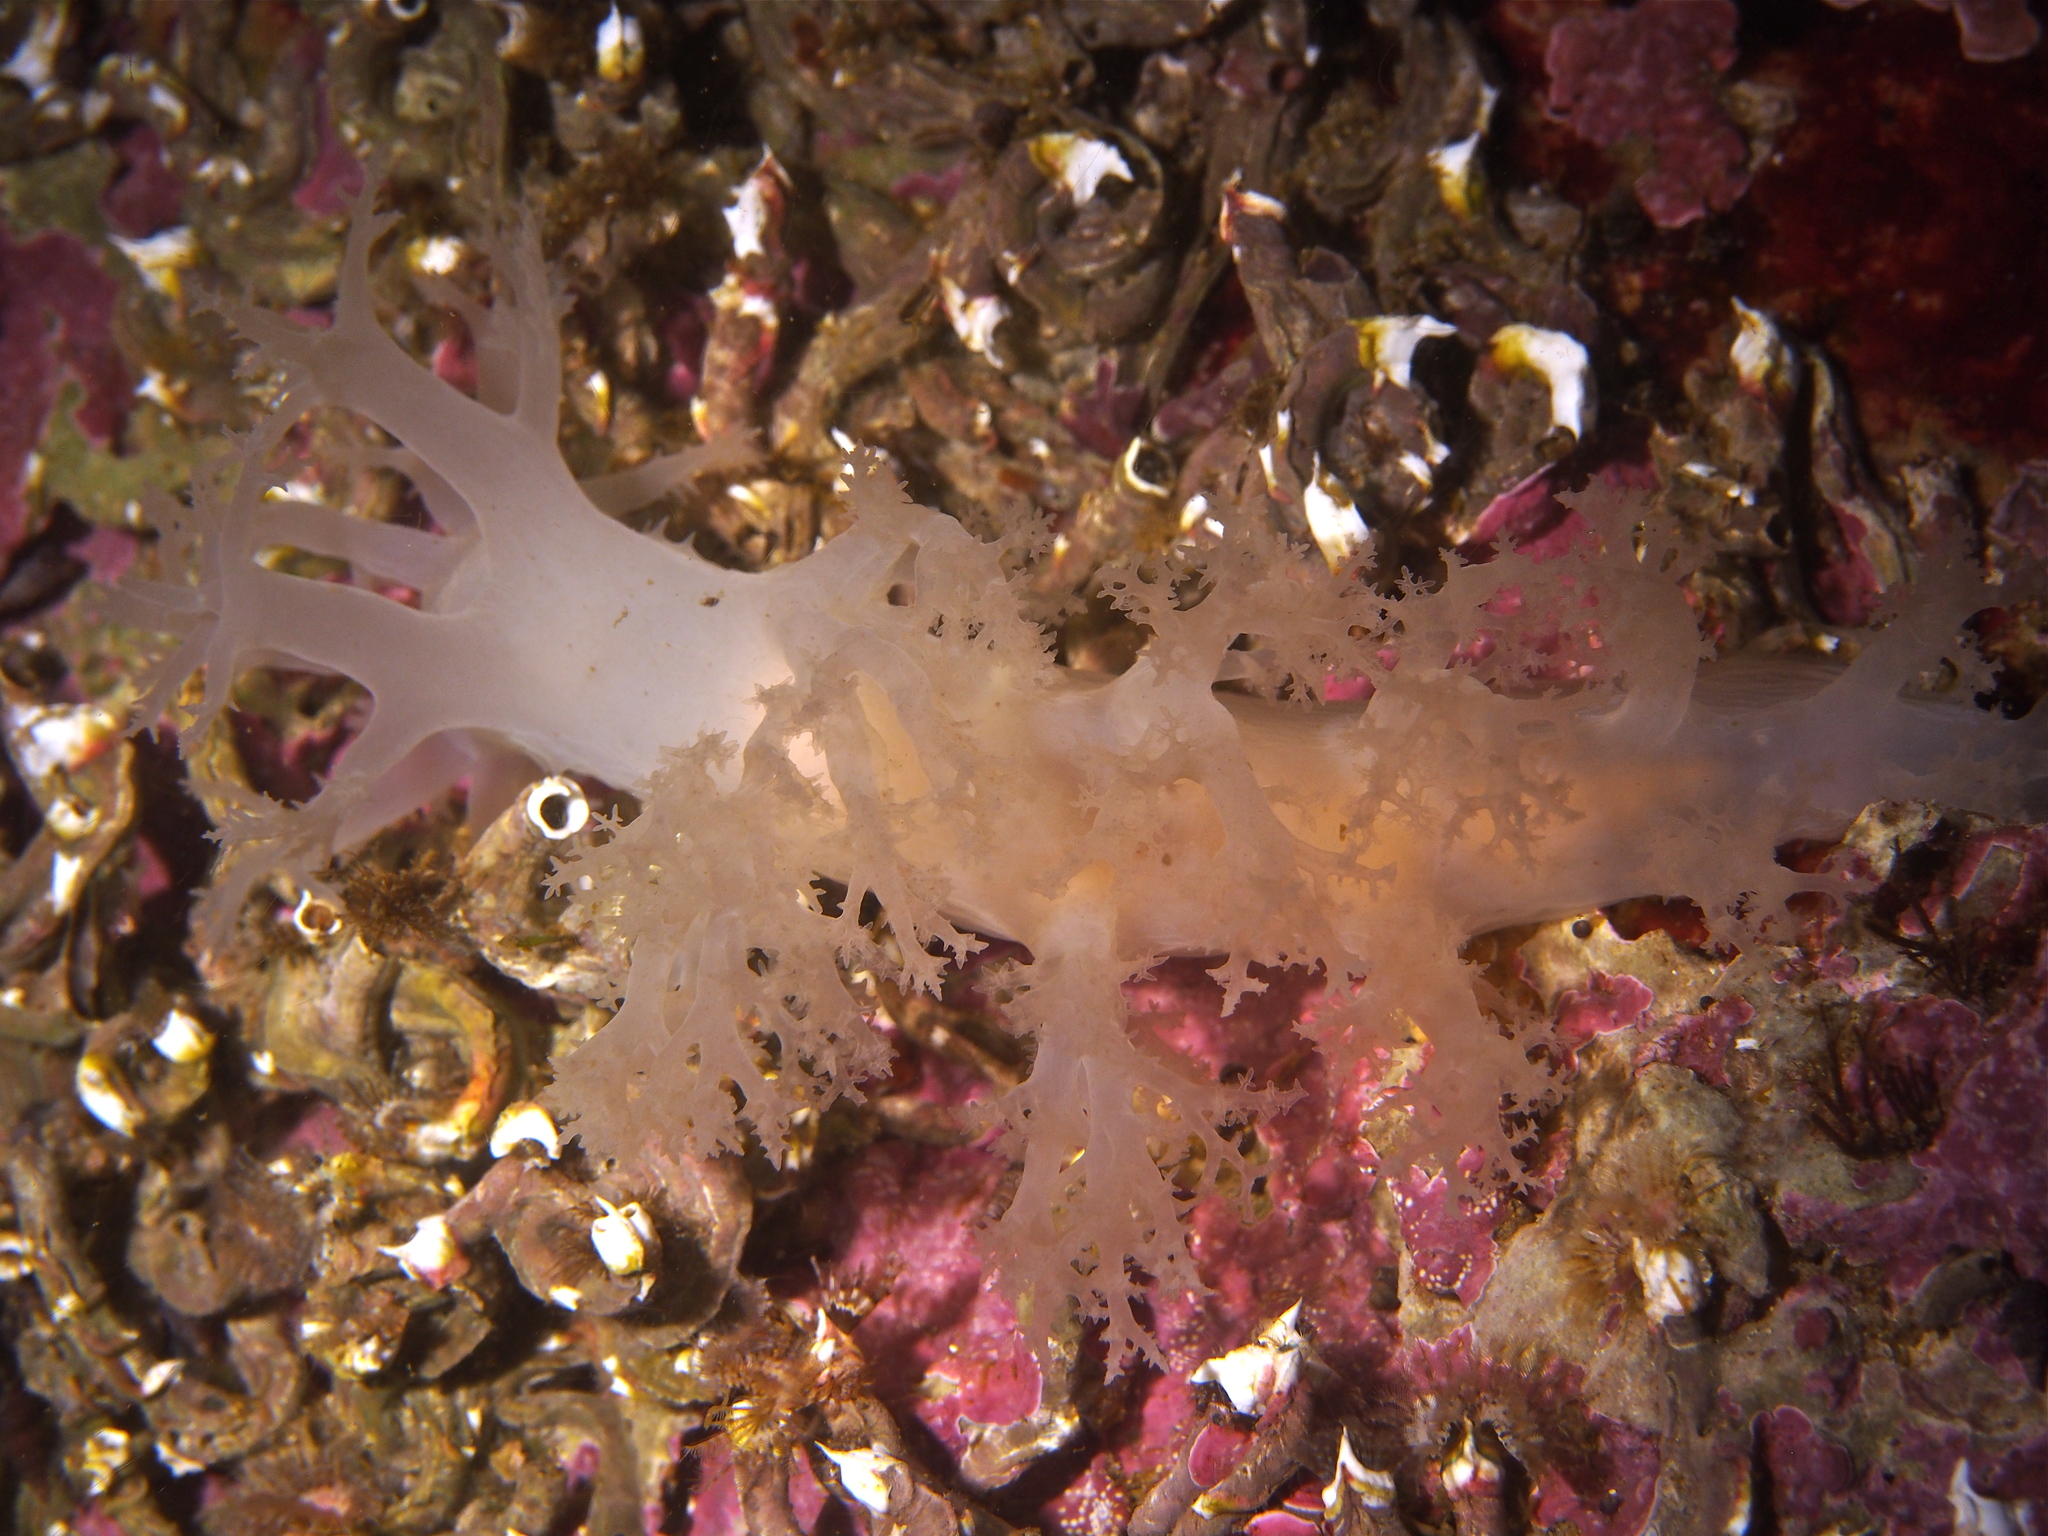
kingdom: Animalia
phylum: Mollusca
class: Gastropoda
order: Nudibranchia
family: Dendronotidae
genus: Dendronotus
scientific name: Dendronotus lacteus
